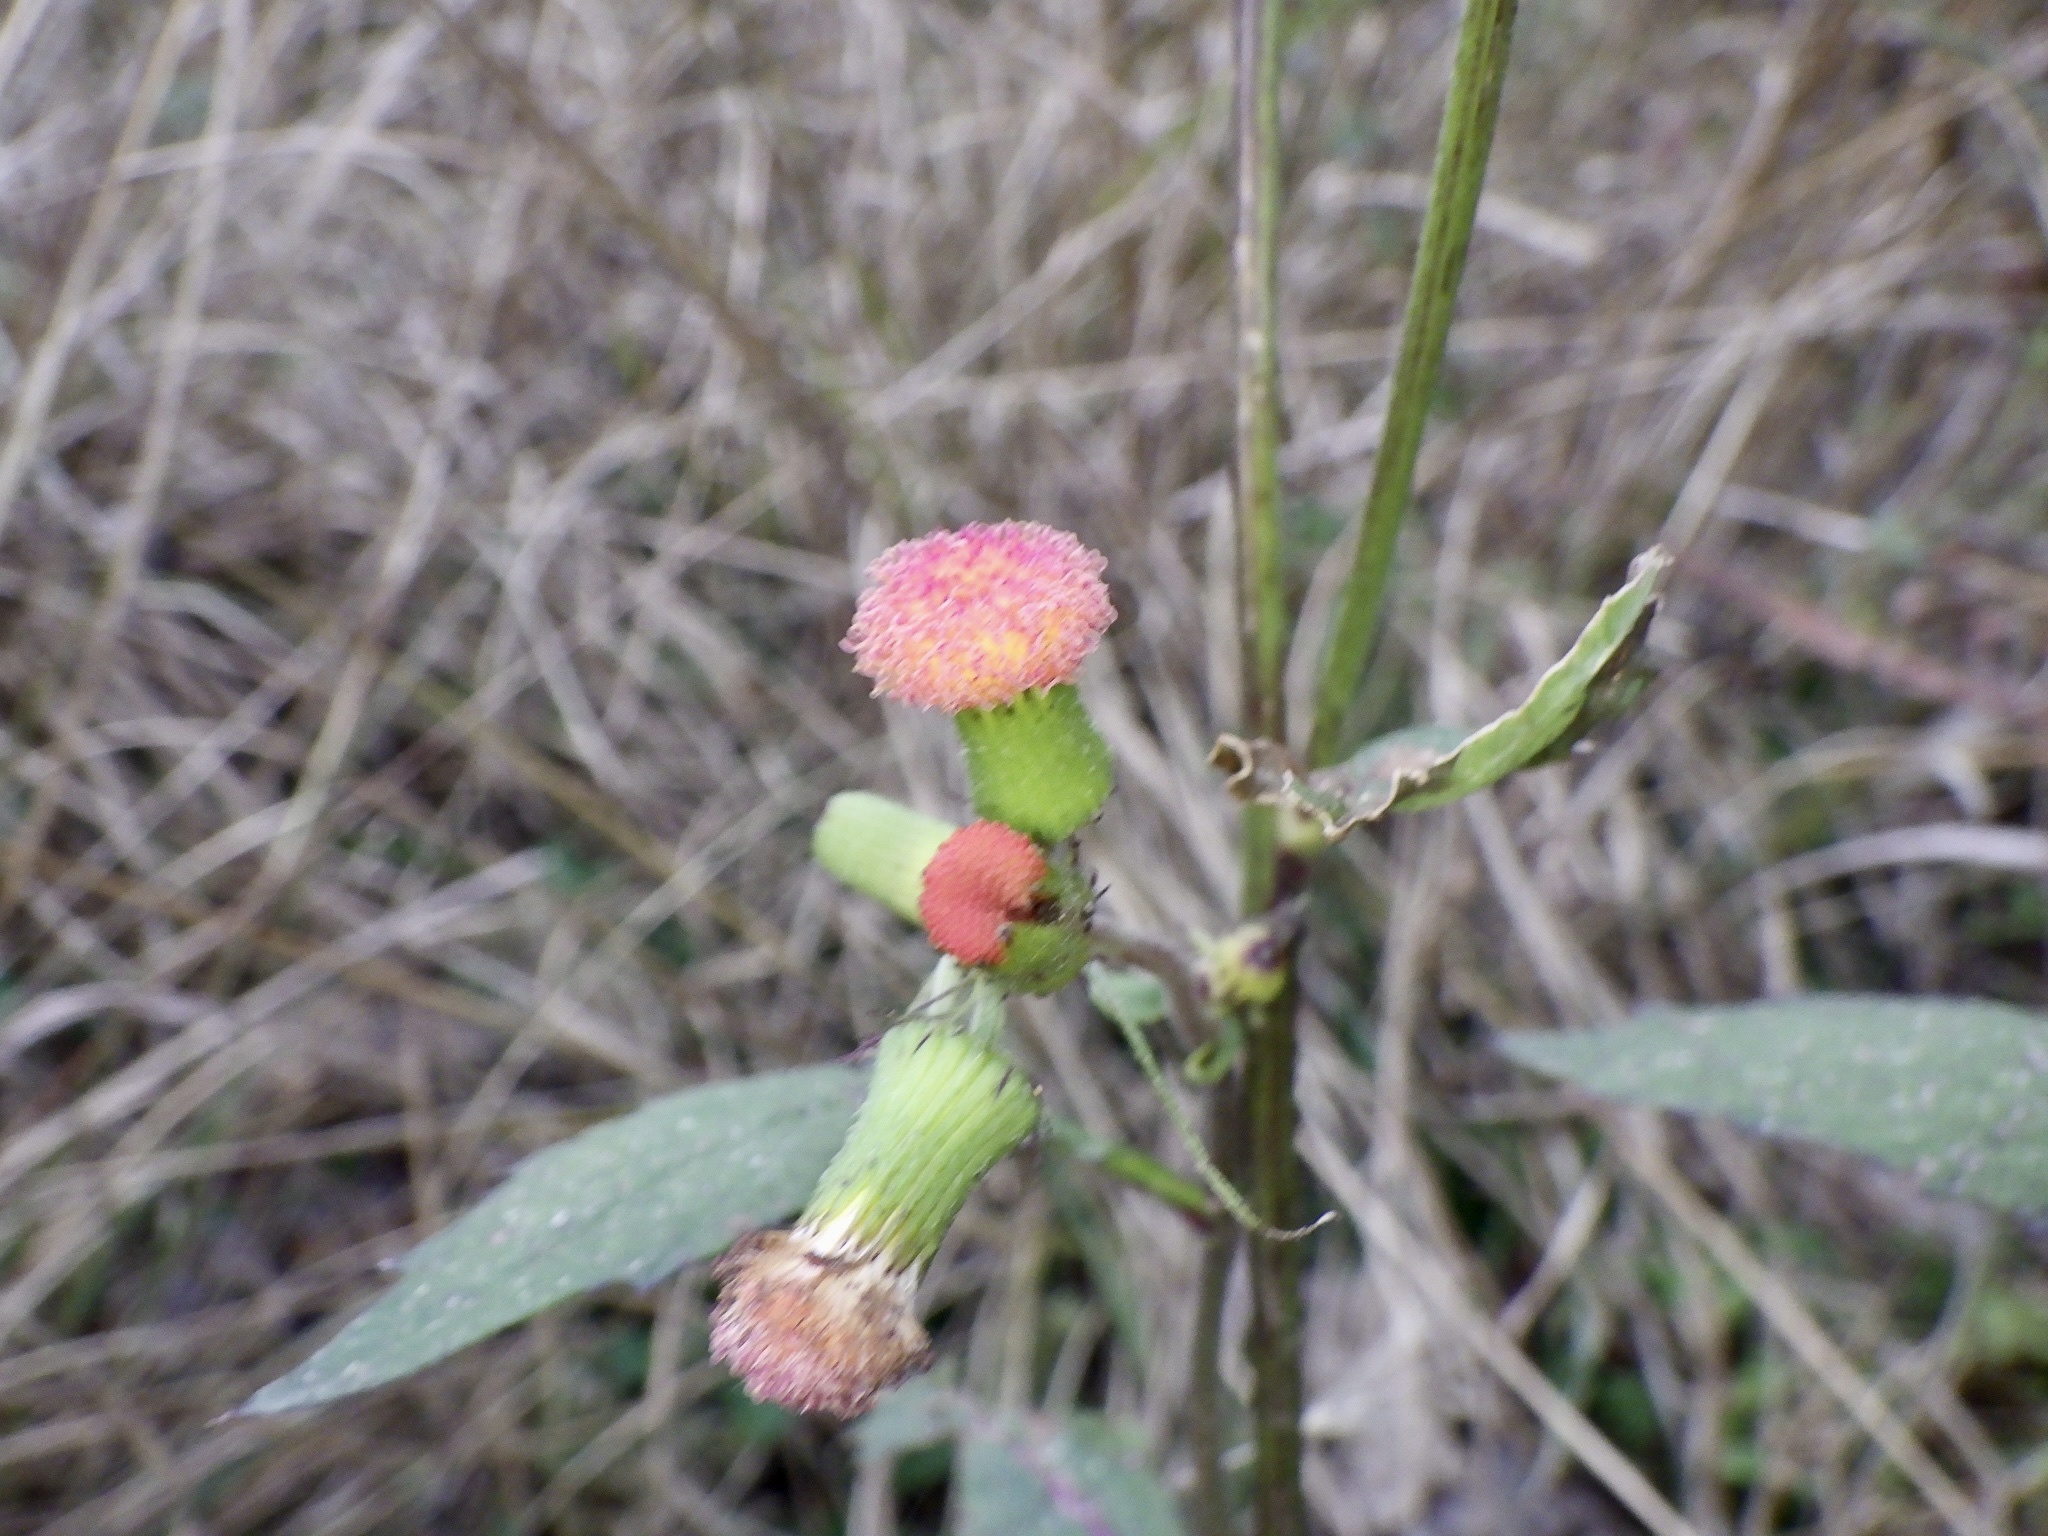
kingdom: Plantae
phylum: Tracheophyta
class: Magnoliopsida
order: Asterales
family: Asteraceae
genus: Crassocephalum
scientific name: Crassocephalum crepidioides
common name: Redflower ragleaf
